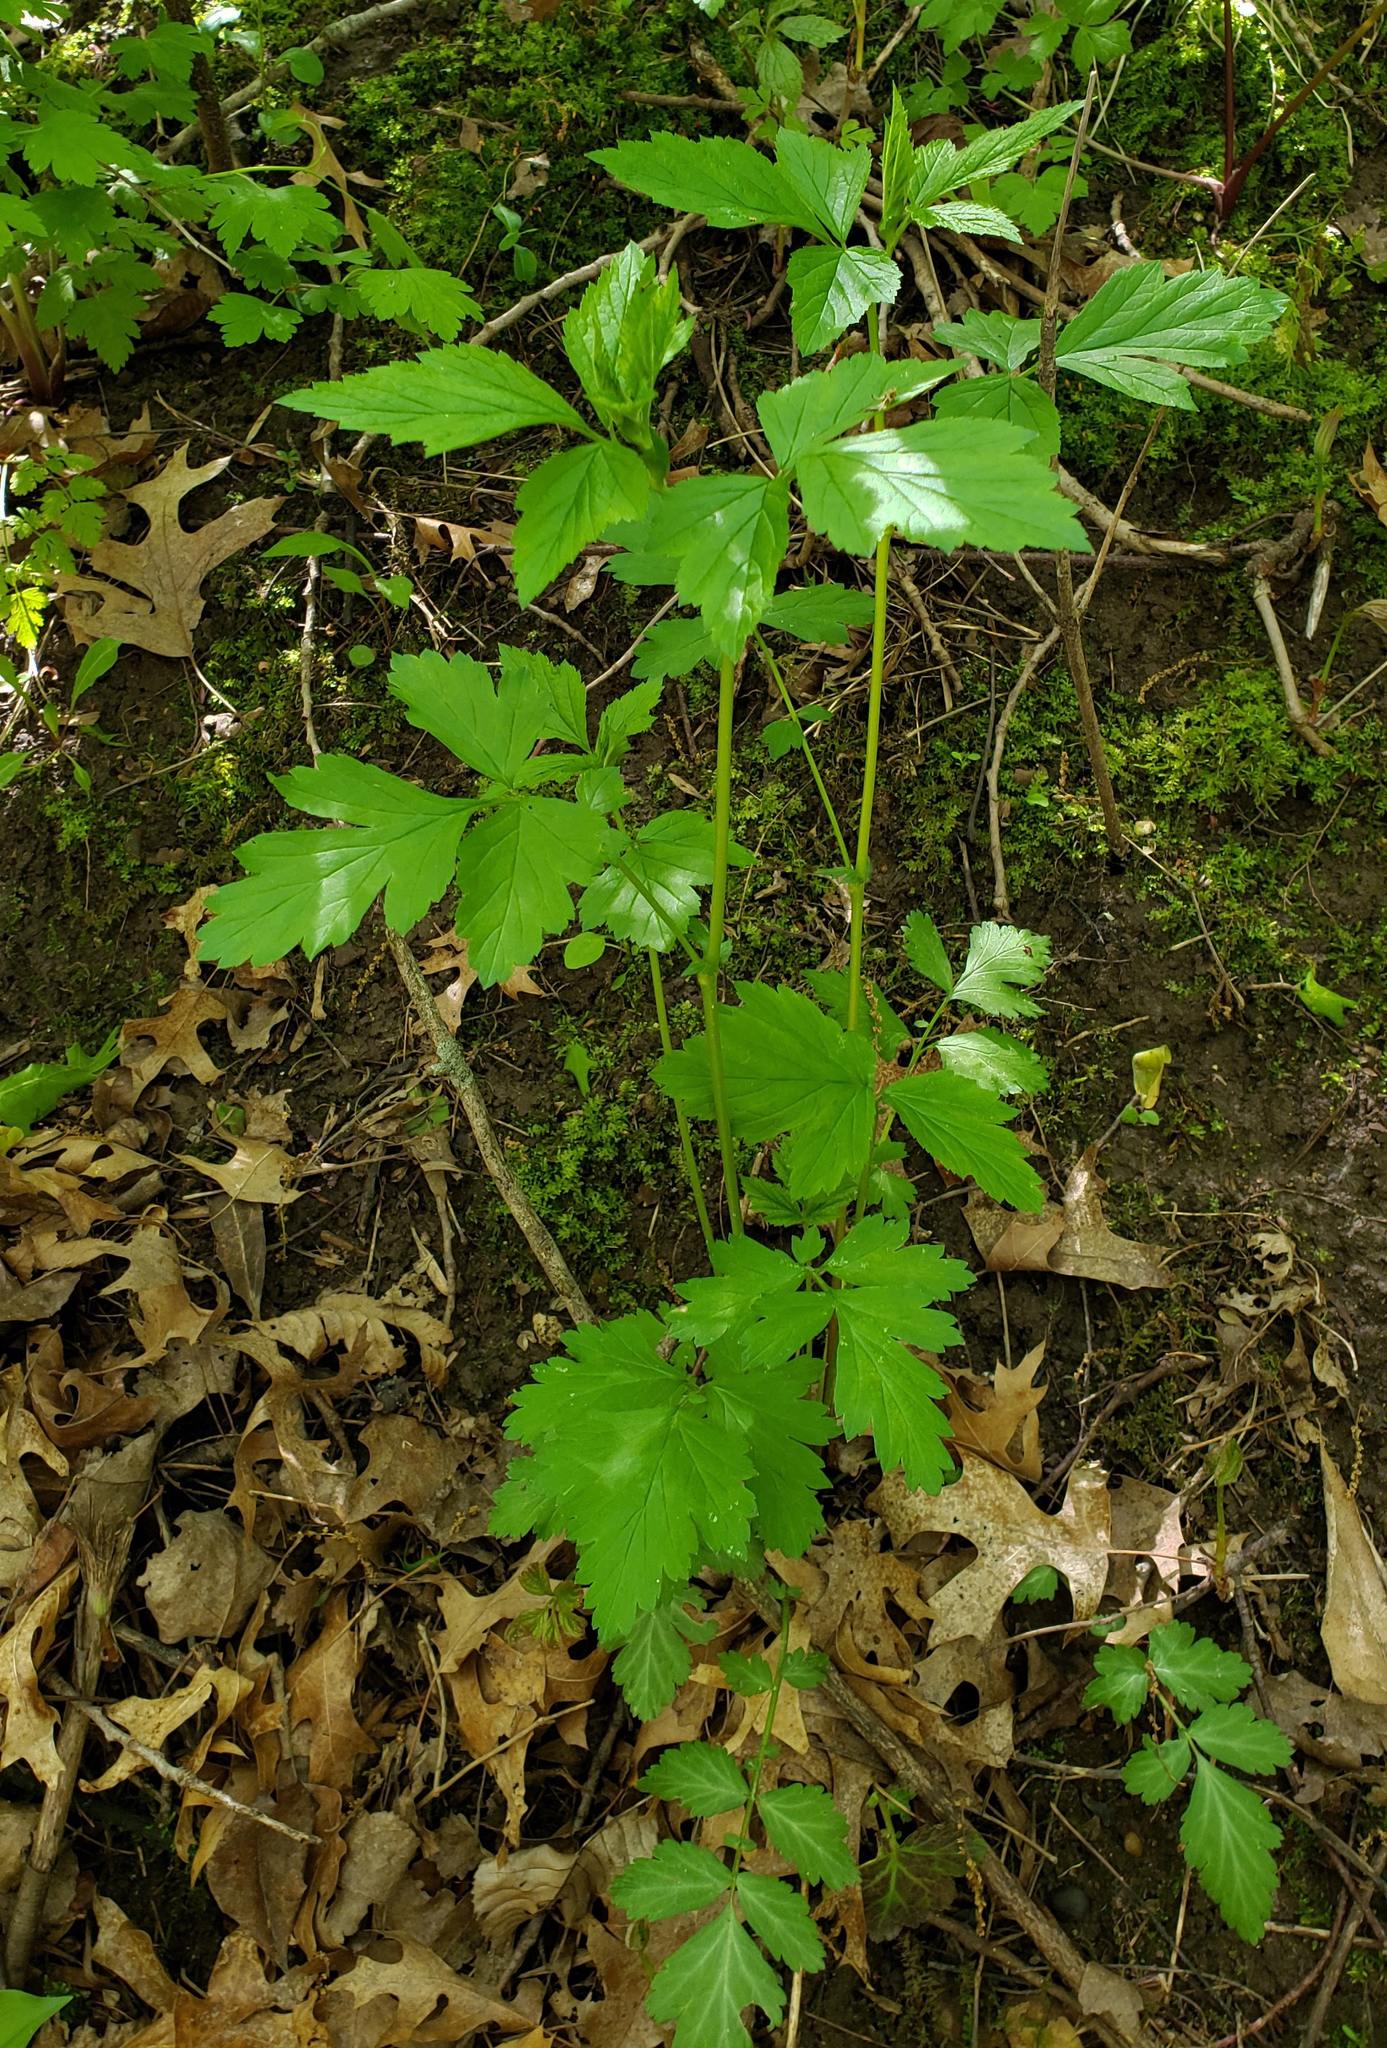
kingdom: Plantae
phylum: Tracheophyta
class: Magnoliopsida
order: Rosales
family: Rosaceae
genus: Geum
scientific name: Geum canadense
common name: White avens
